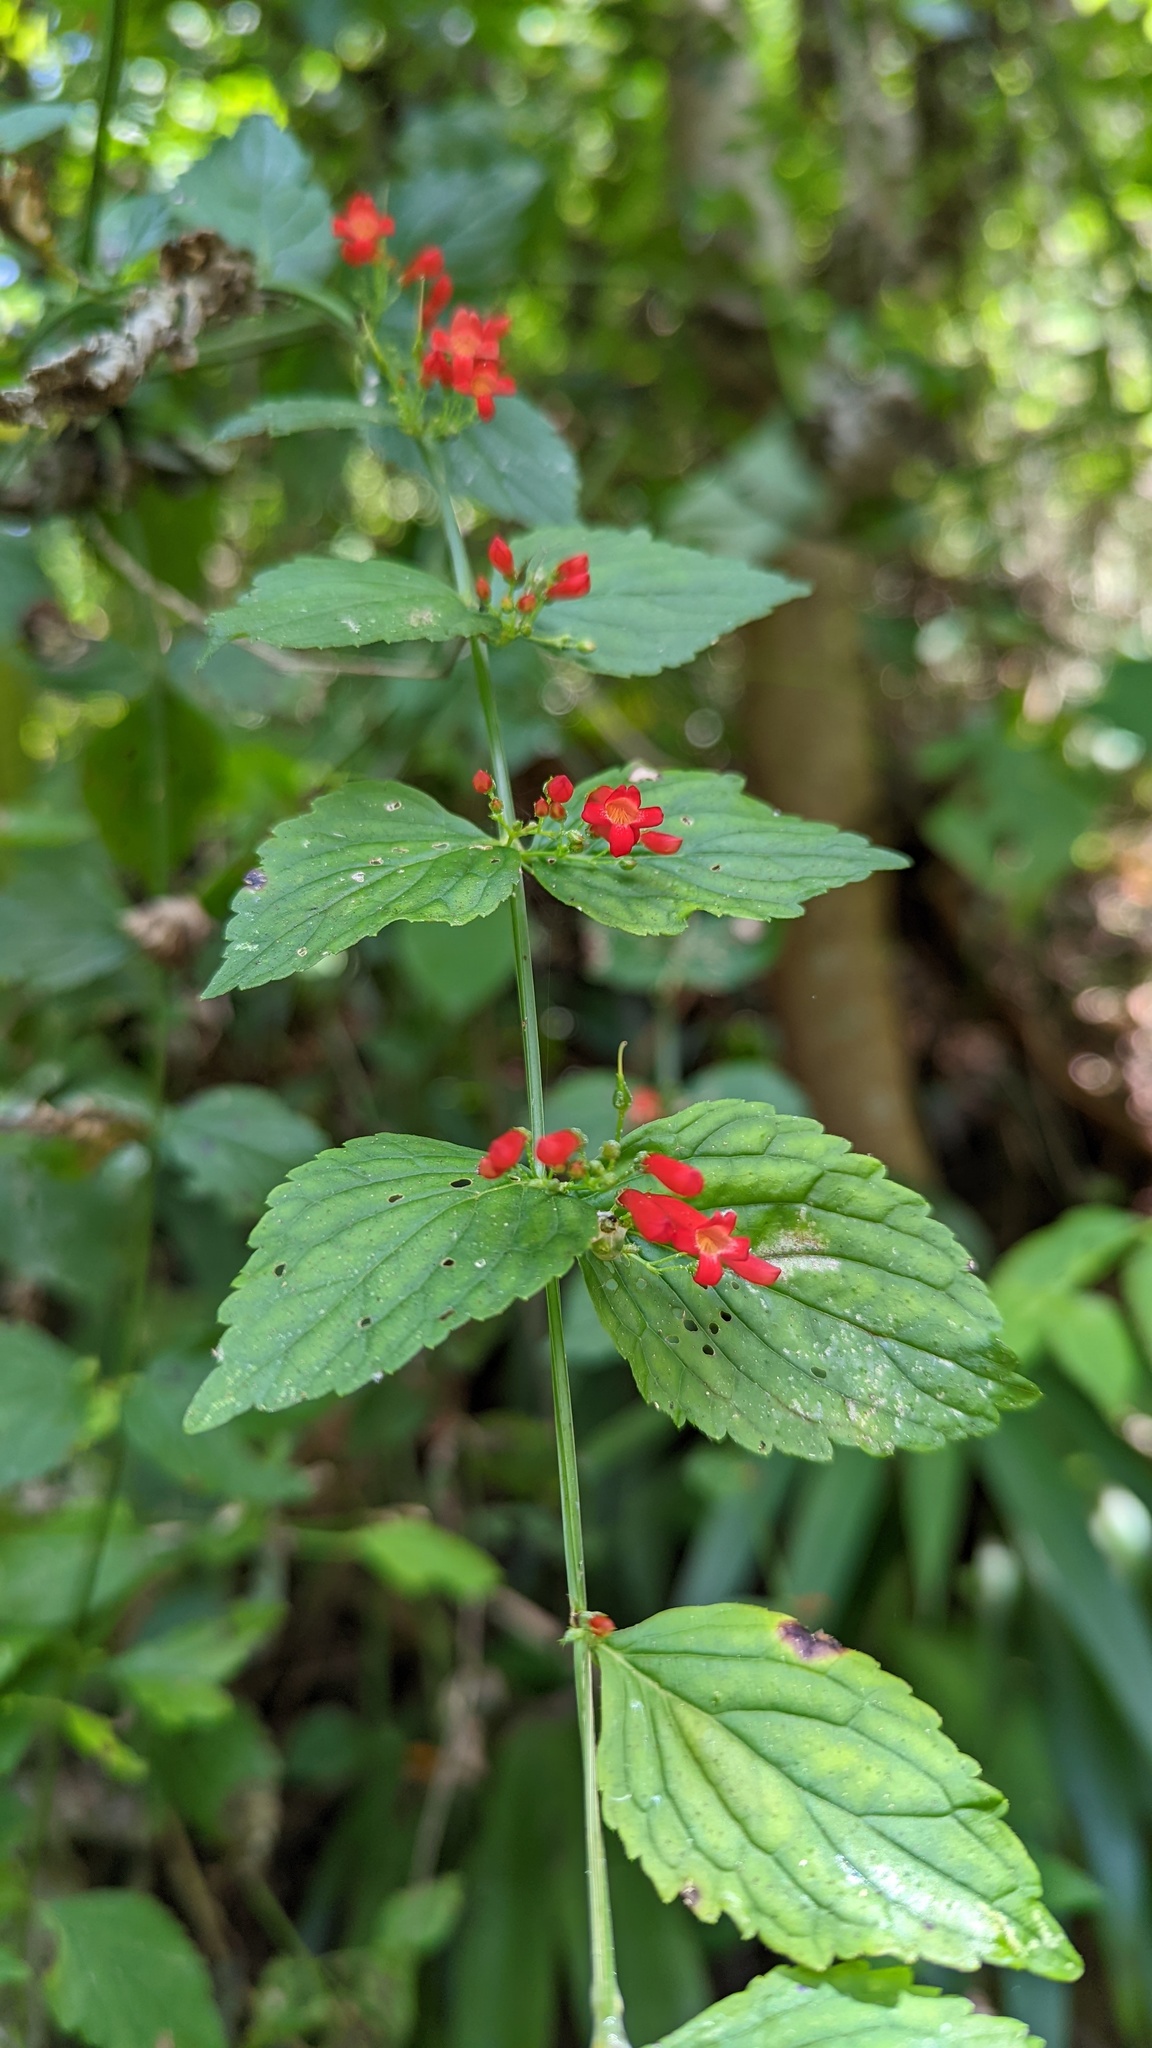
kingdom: Plantae
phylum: Tracheophyta
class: Magnoliopsida
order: Lamiales
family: Plantaginaceae
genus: Russelia
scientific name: Russelia sarmentosa
